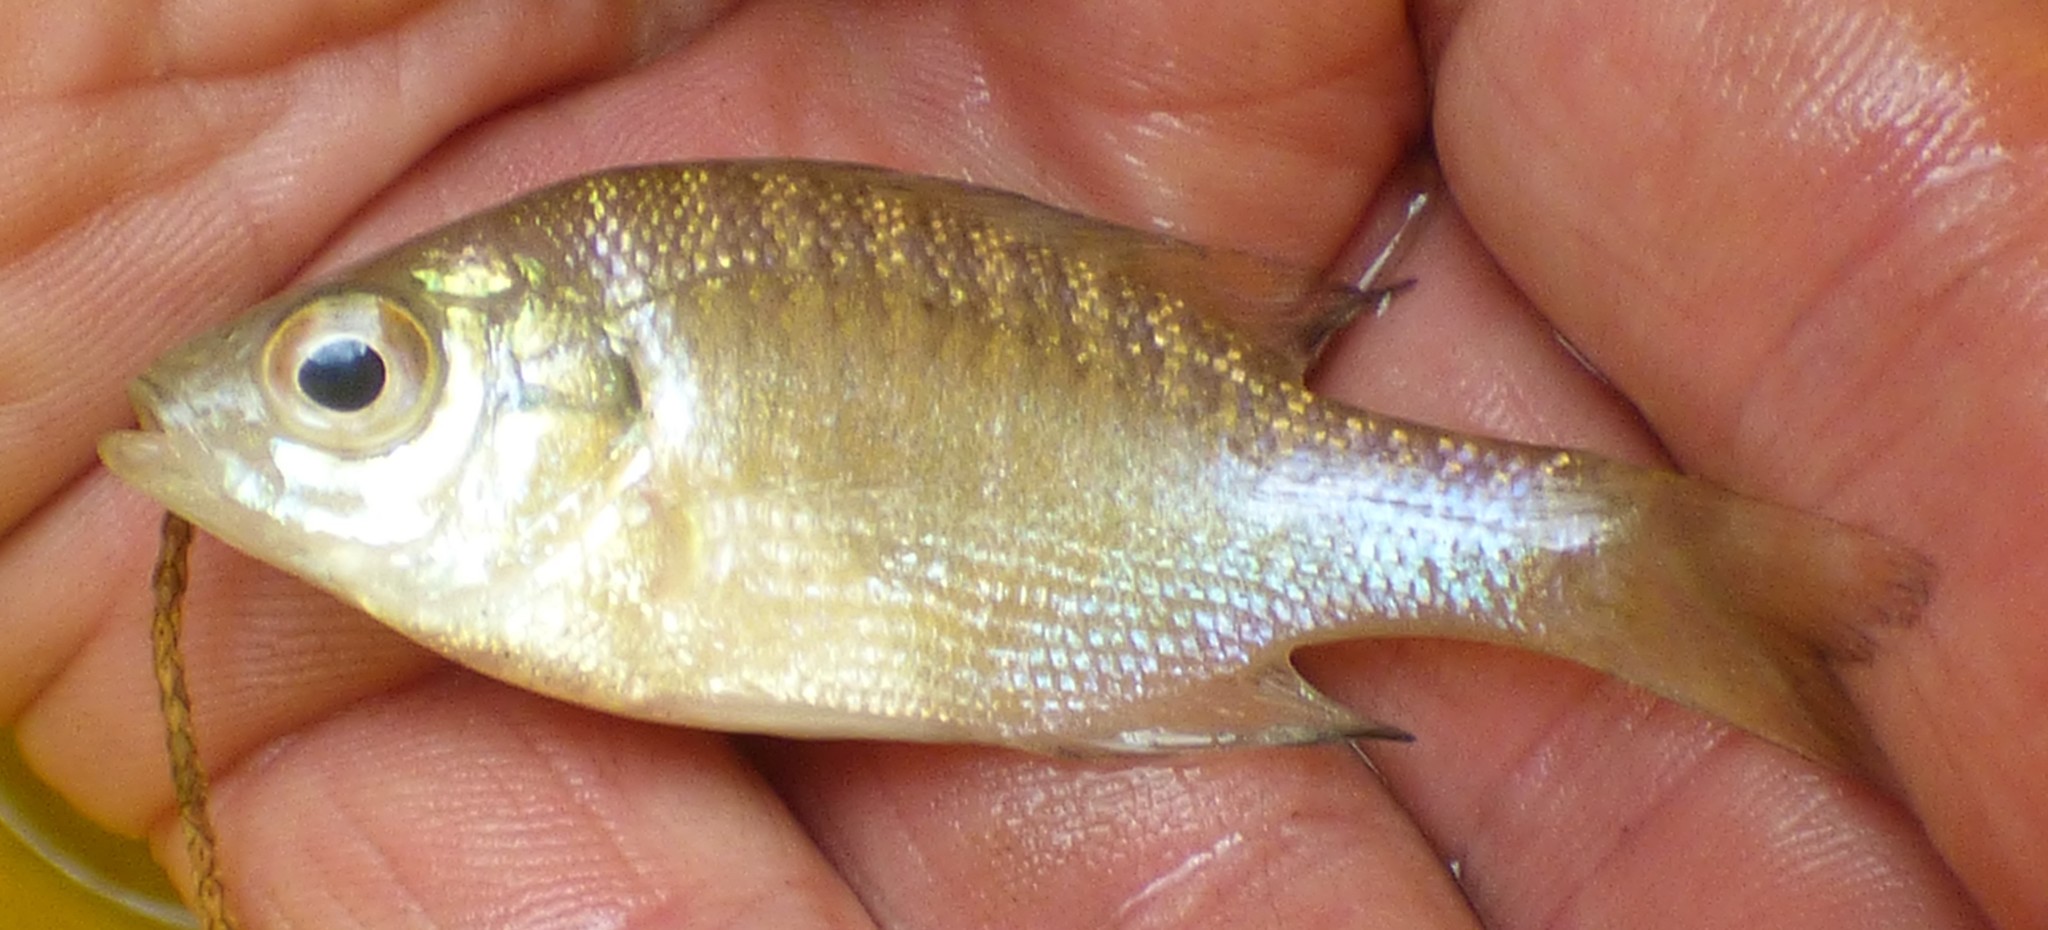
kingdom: Animalia
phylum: Chordata
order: Perciformes
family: Centrarchidae
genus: Lepomis
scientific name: Lepomis macrochirus
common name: Bluegill
